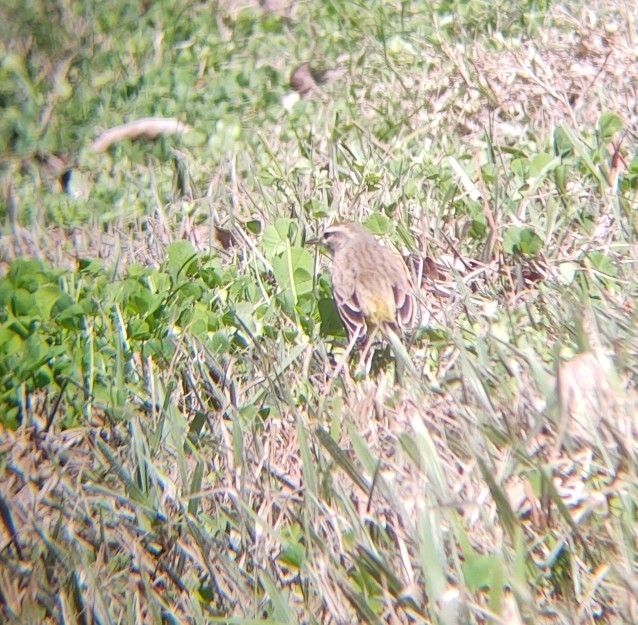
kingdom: Animalia
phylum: Chordata
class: Aves
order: Passeriformes
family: Parulidae
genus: Setophaga
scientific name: Setophaga palmarum
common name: Palm warbler
